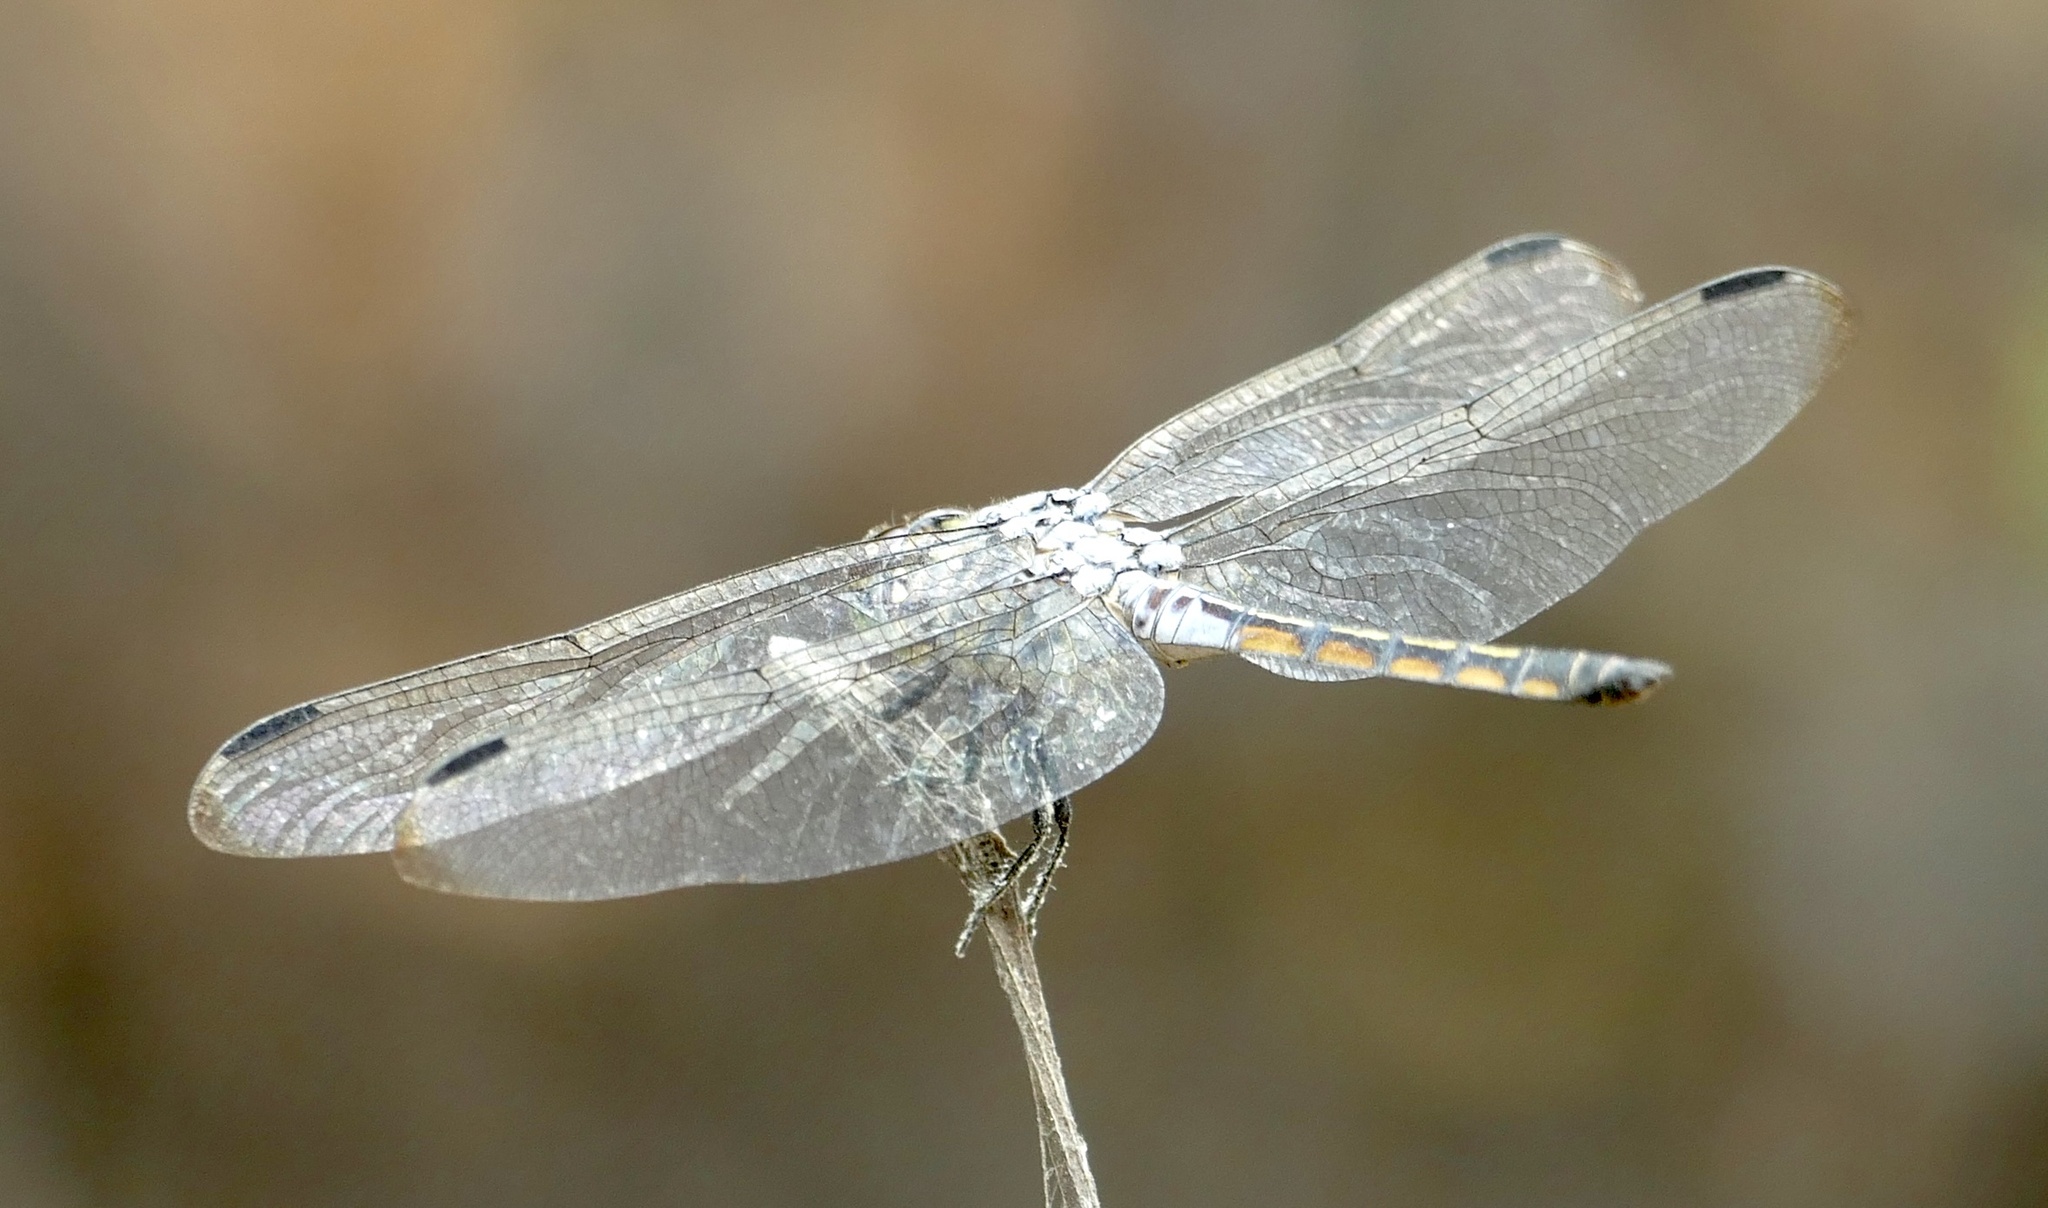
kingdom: Animalia
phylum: Arthropoda
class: Insecta
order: Odonata
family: Libellulidae
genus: Potamarcha
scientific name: Potamarcha congener
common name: Blue chaser
